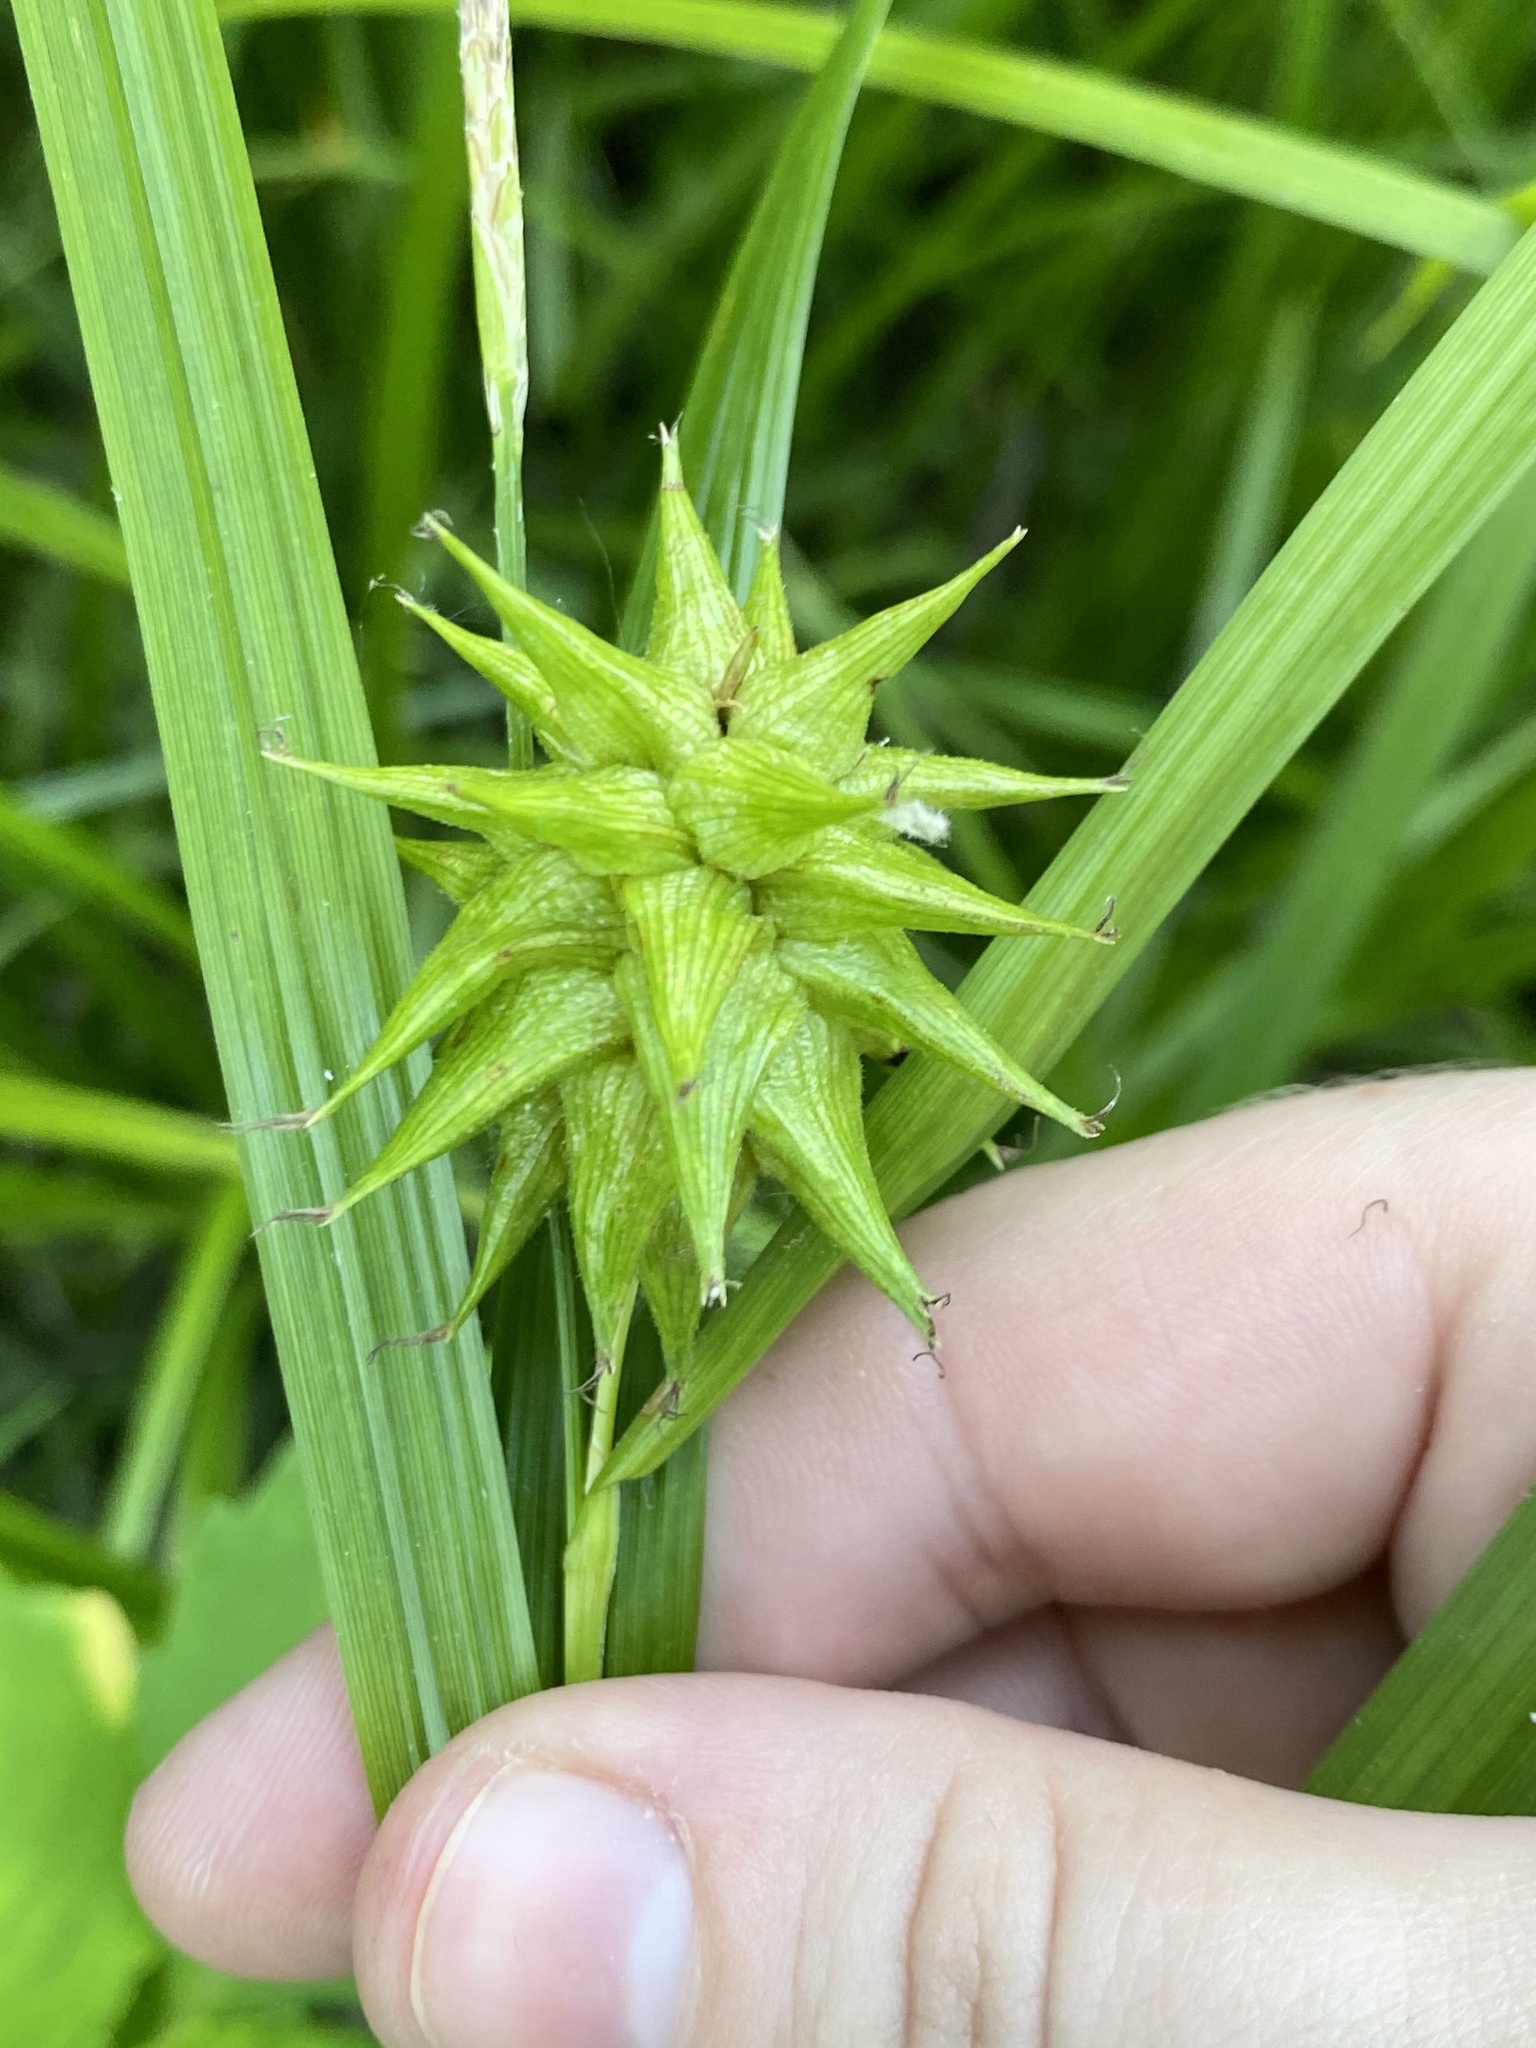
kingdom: Plantae
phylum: Tracheophyta
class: Liliopsida
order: Poales
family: Cyperaceae
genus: Carex
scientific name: Carex grayi
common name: Asa gray's sedge
